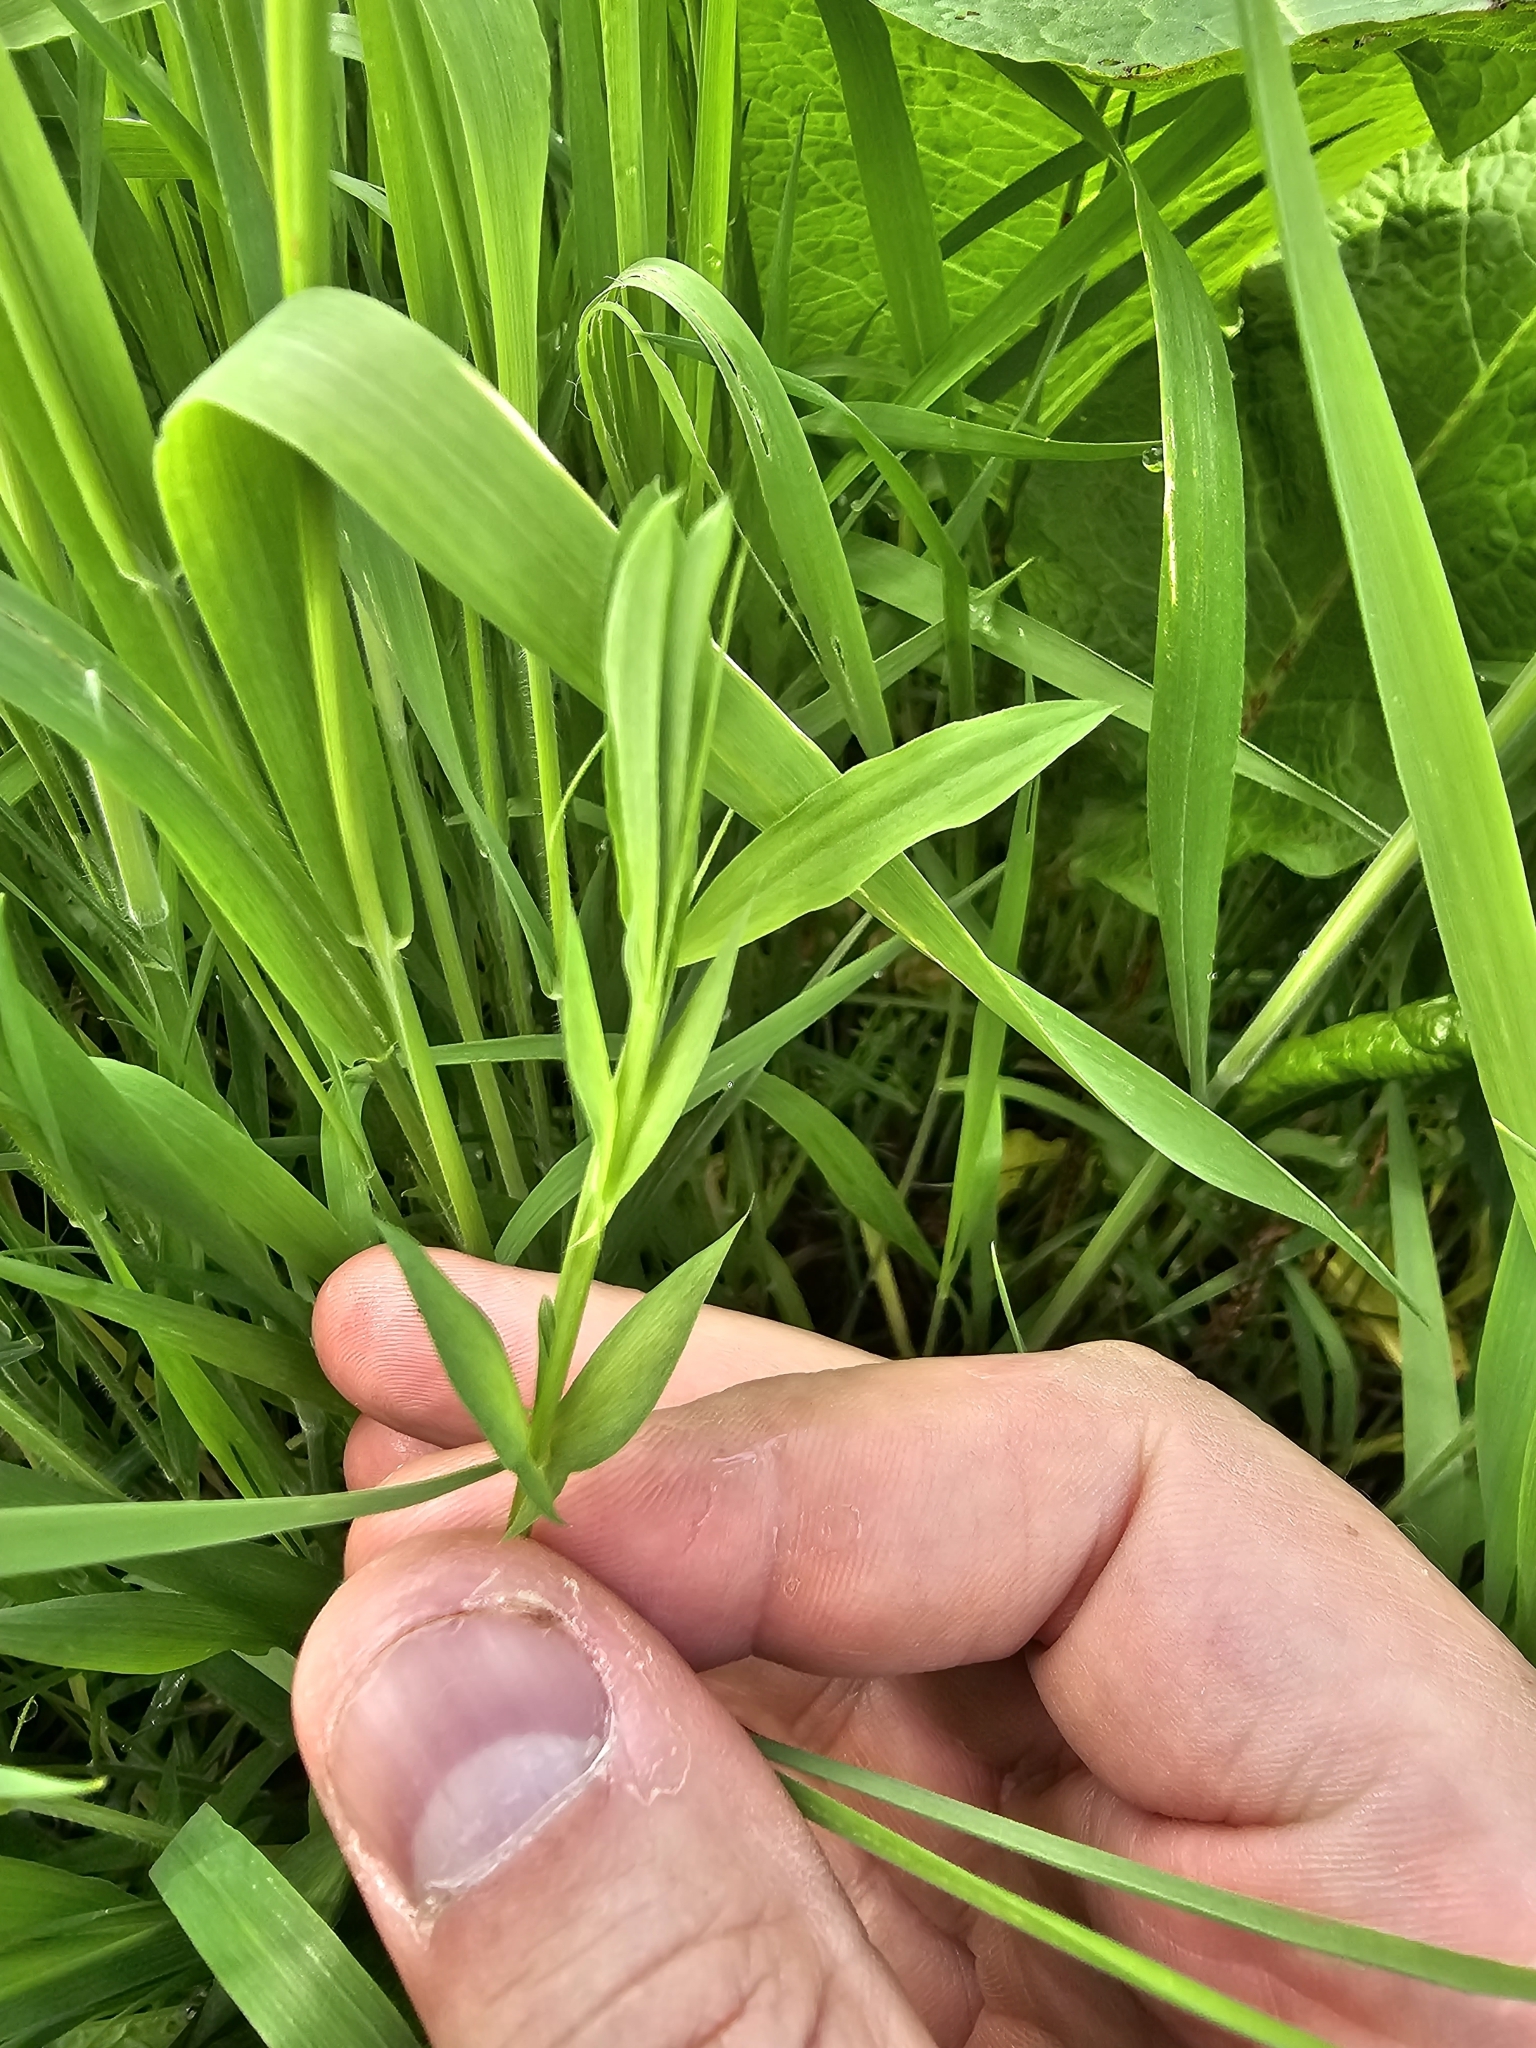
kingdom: Plantae
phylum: Tracheophyta
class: Magnoliopsida
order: Fabales
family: Fabaceae
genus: Lathyrus
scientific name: Lathyrus pratensis
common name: Meadow vetchling
